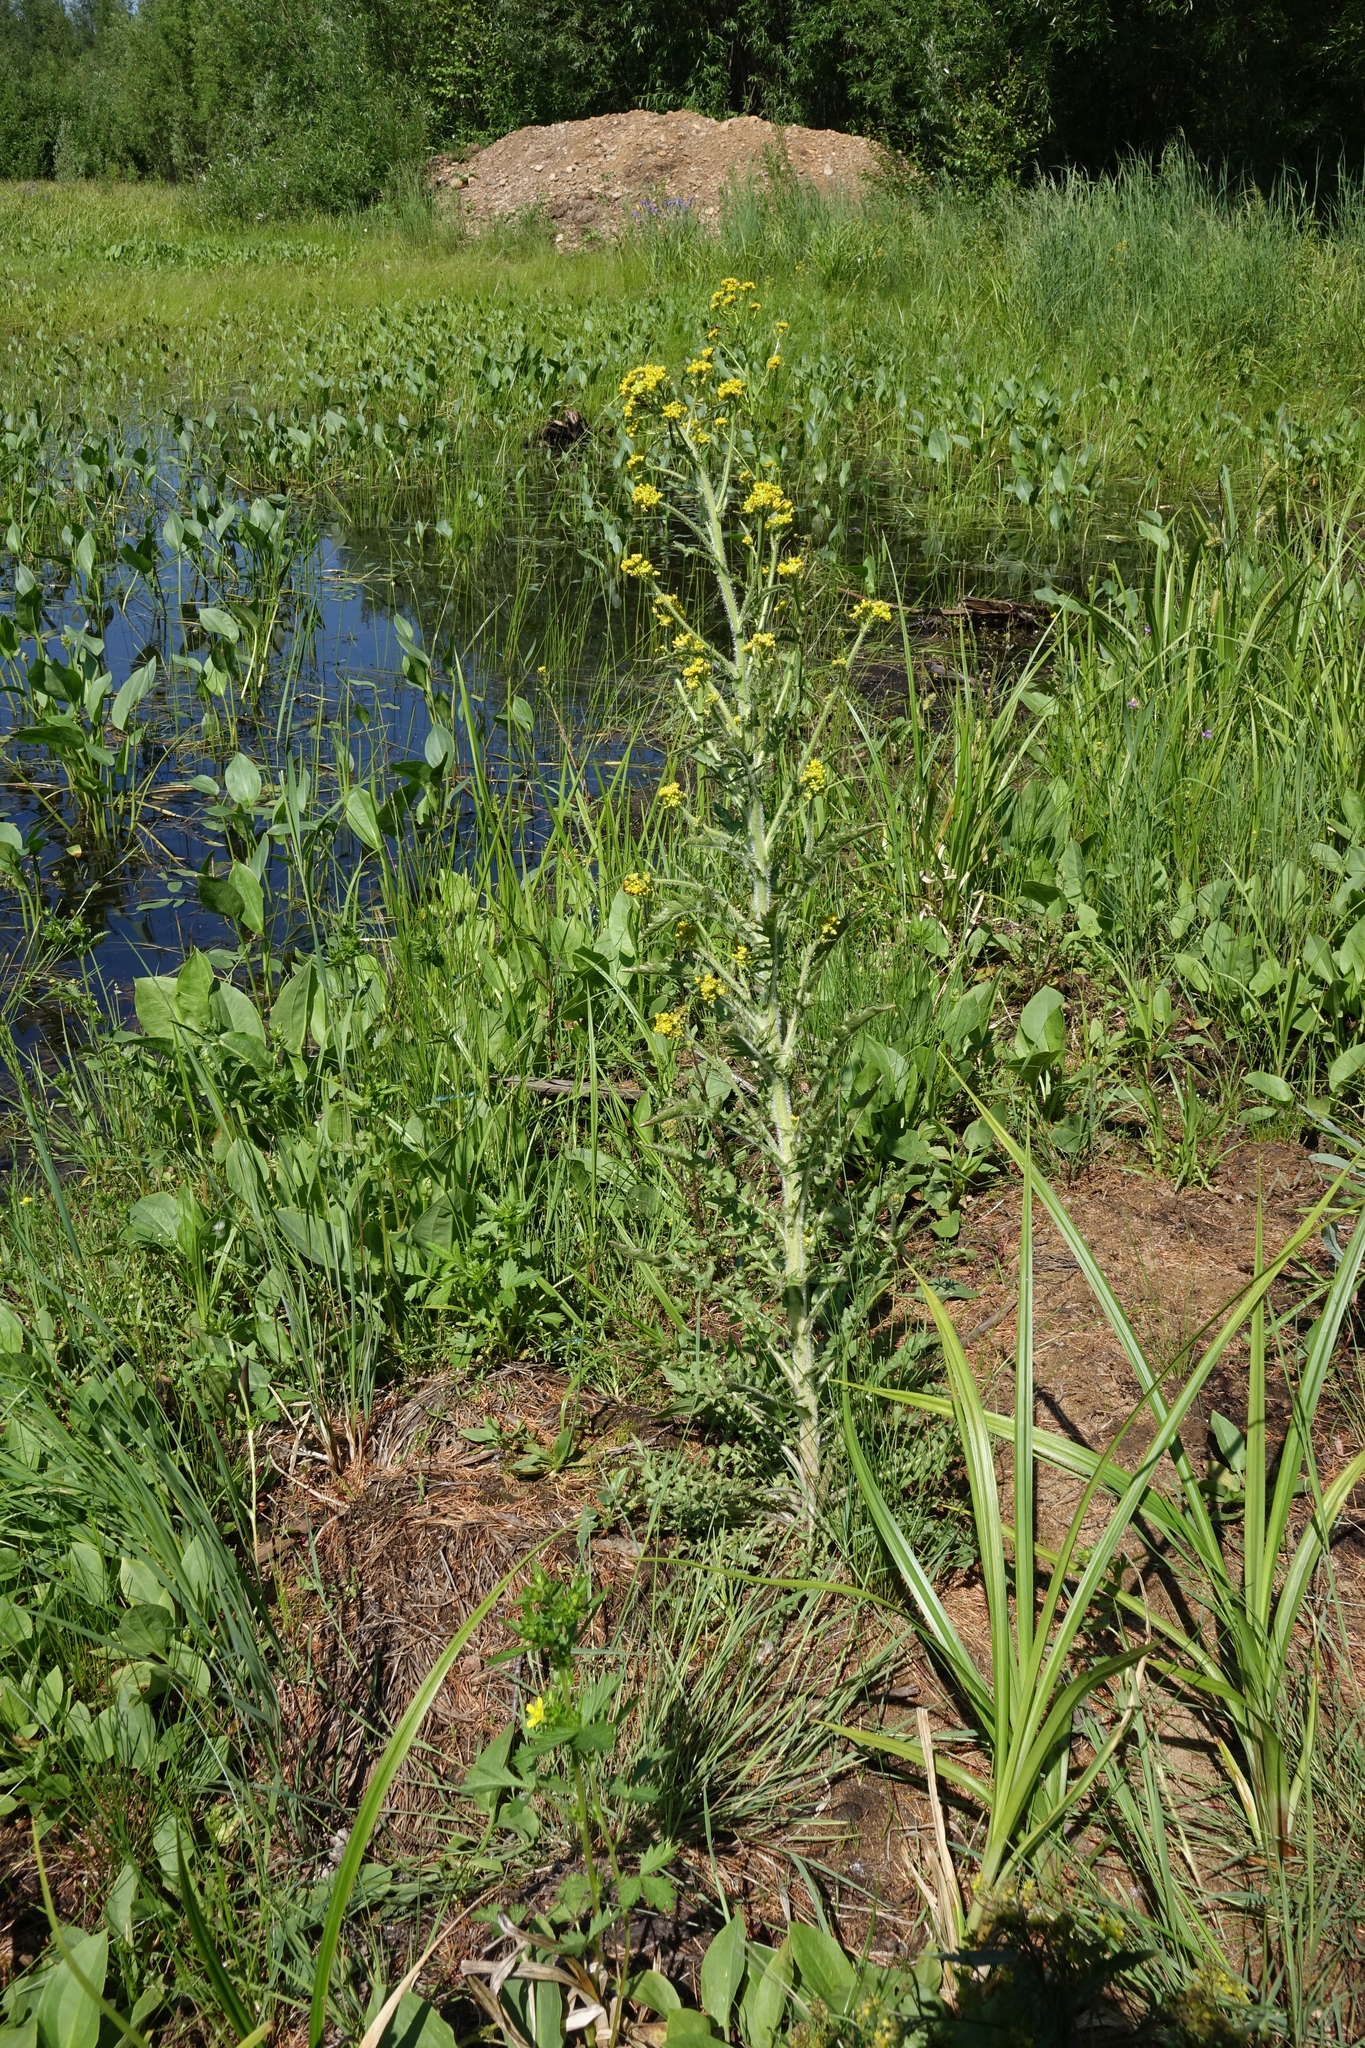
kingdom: Plantae
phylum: Tracheophyta
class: Magnoliopsida
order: Brassicales
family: Brassicaceae
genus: Rorippa
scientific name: Rorippa barbareifolia
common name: Hoary yellowcress
